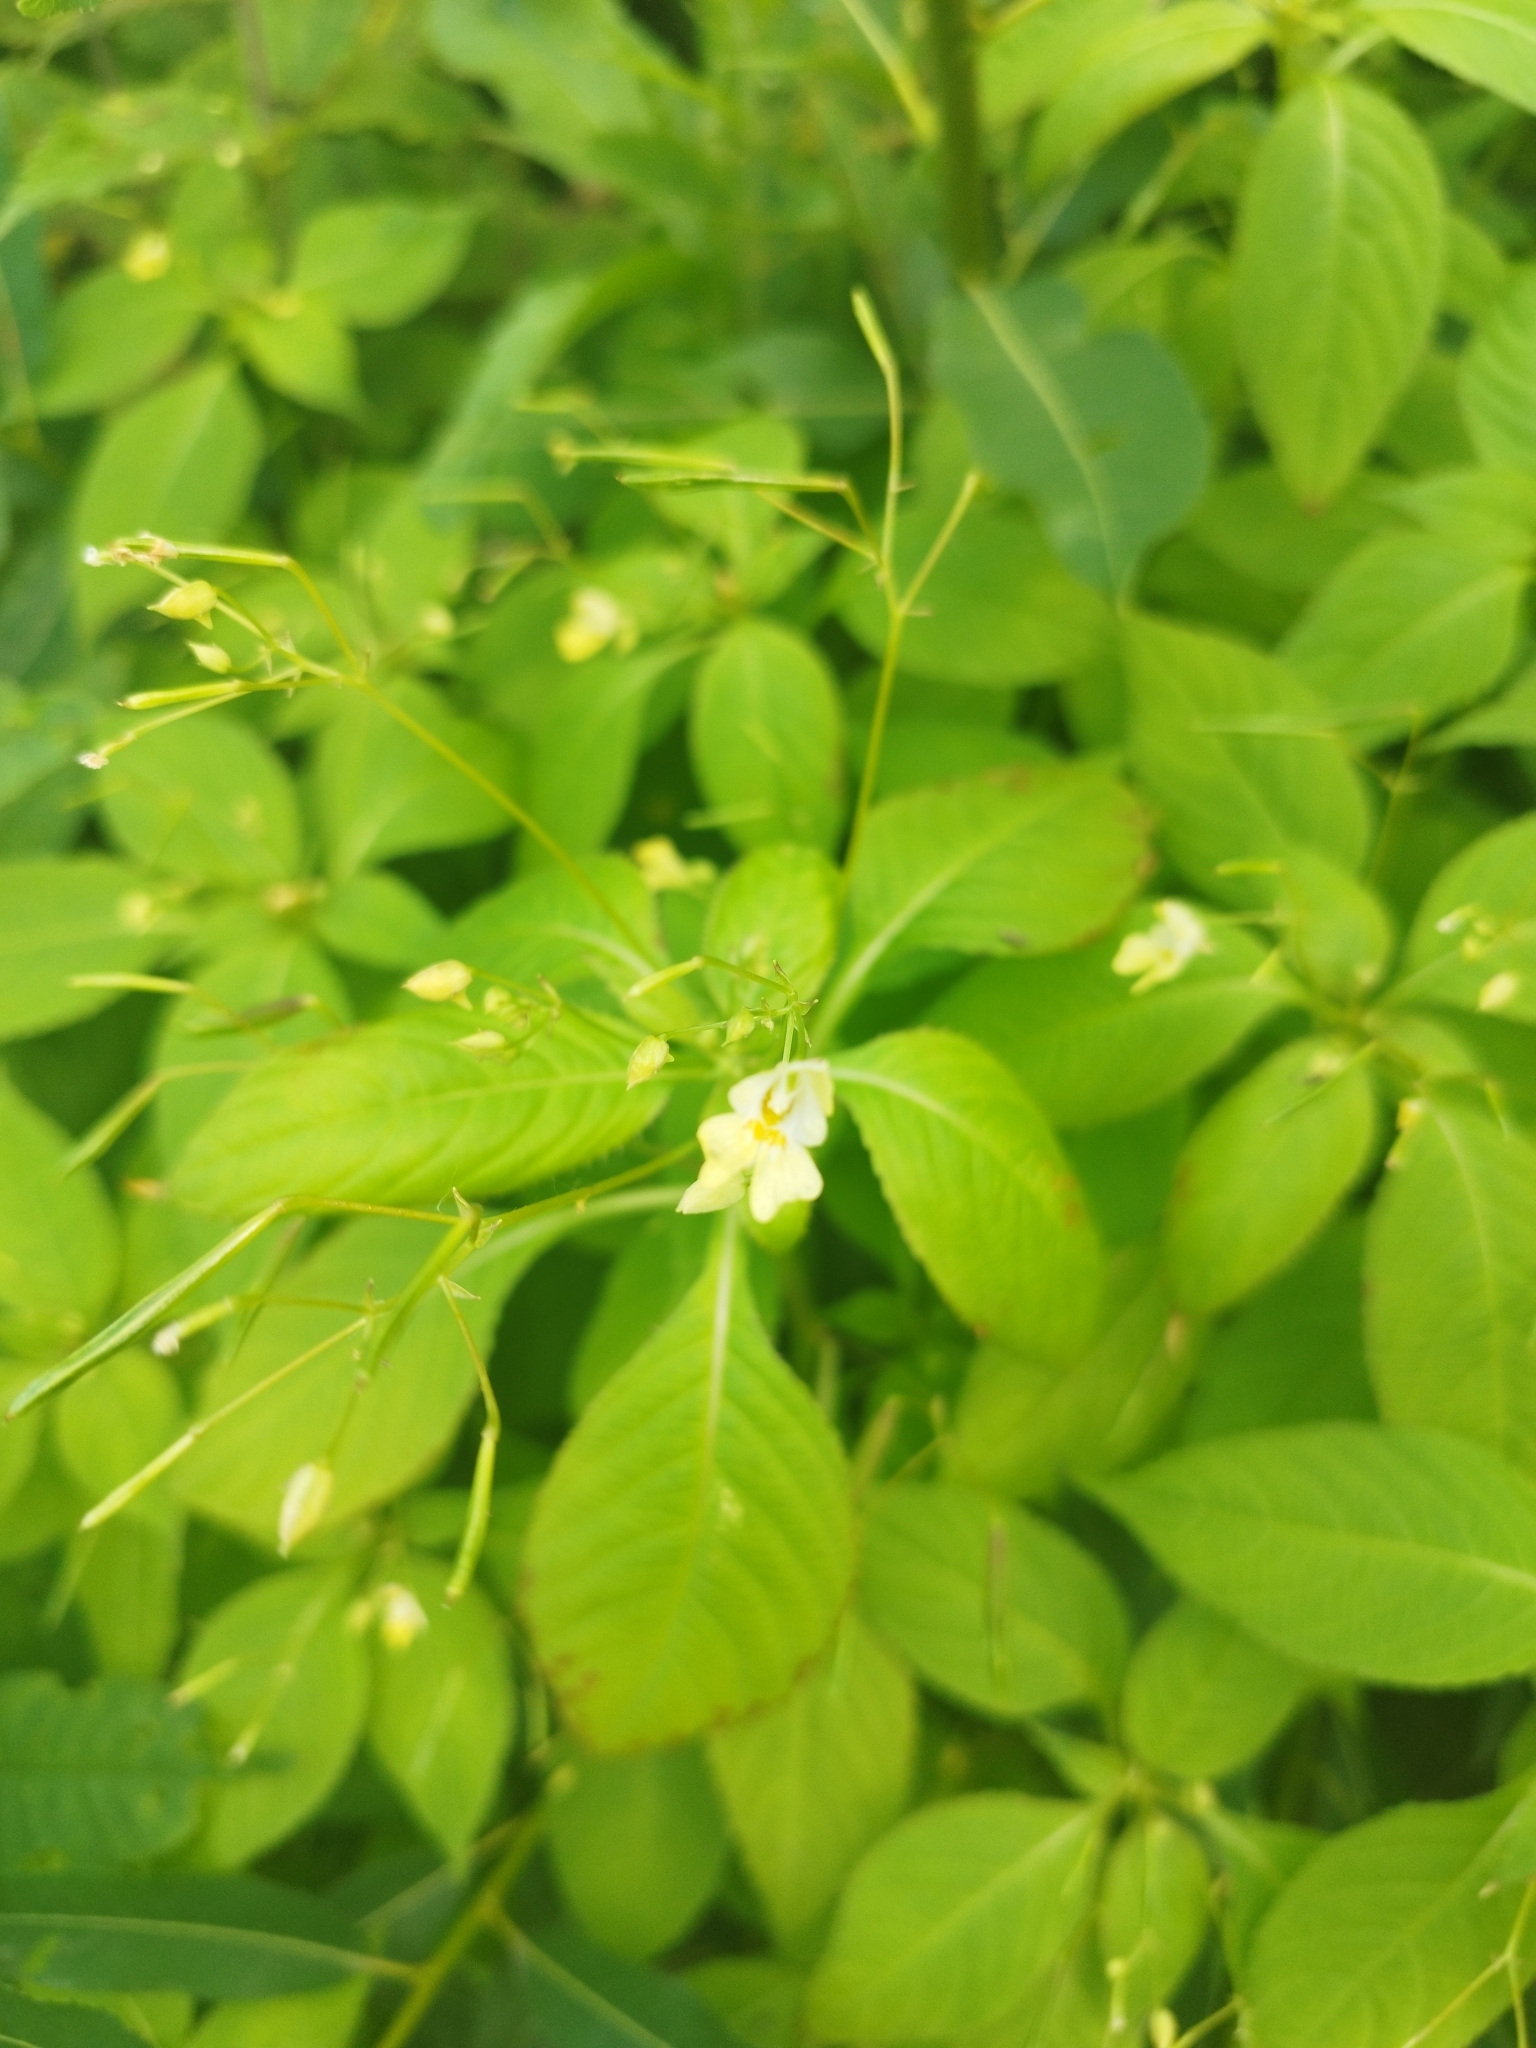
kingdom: Plantae
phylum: Tracheophyta
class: Magnoliopsida
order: Ericales
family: Balsaminaceae
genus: Impatiens
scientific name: Impatiens parviflora
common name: Small balsam
